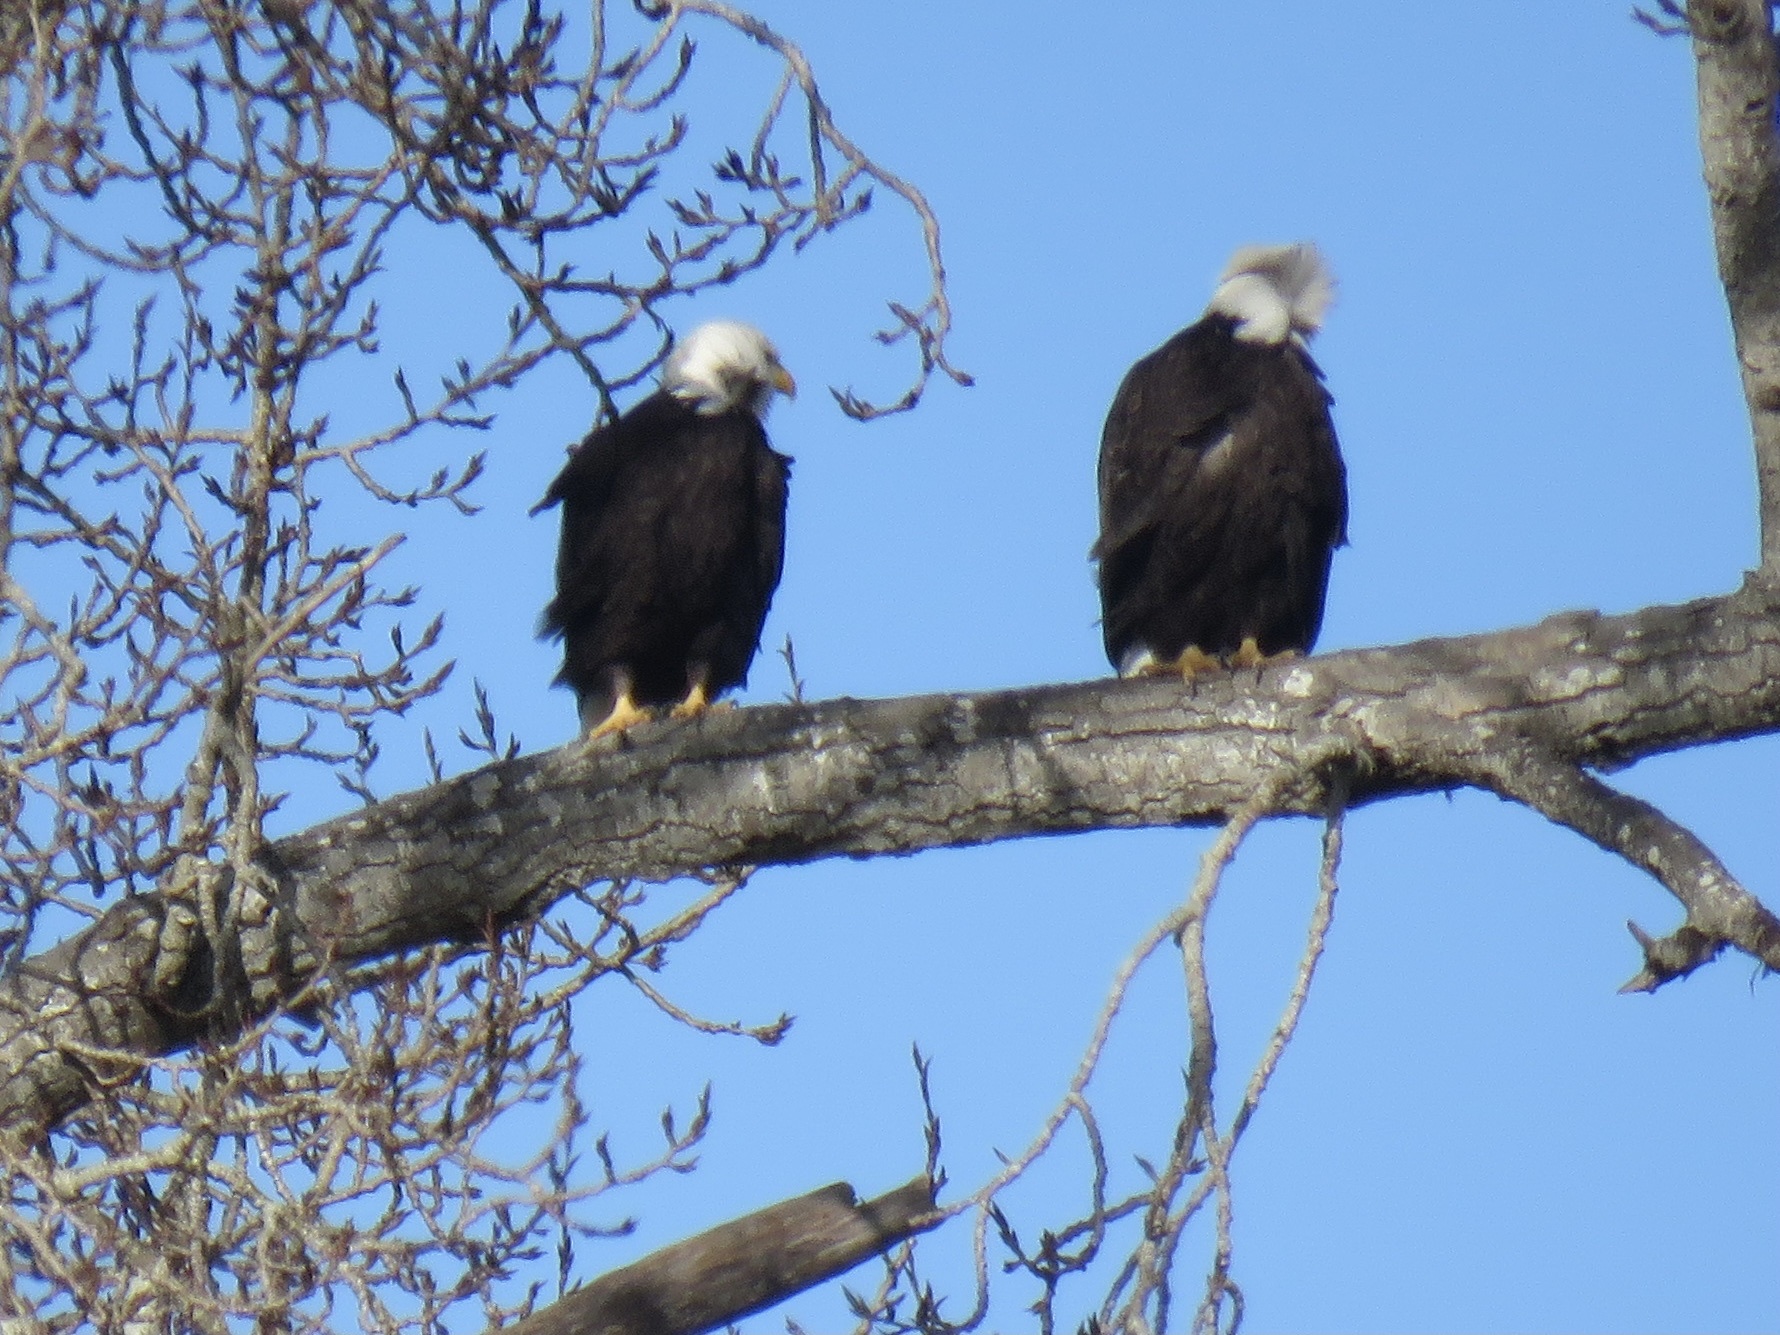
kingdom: Animalia
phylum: Chordata
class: Aves
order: Accipitriformes
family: Accipitridae
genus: Haliaeetus
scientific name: Haliaeetus leucocephalus
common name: Bald eagle
